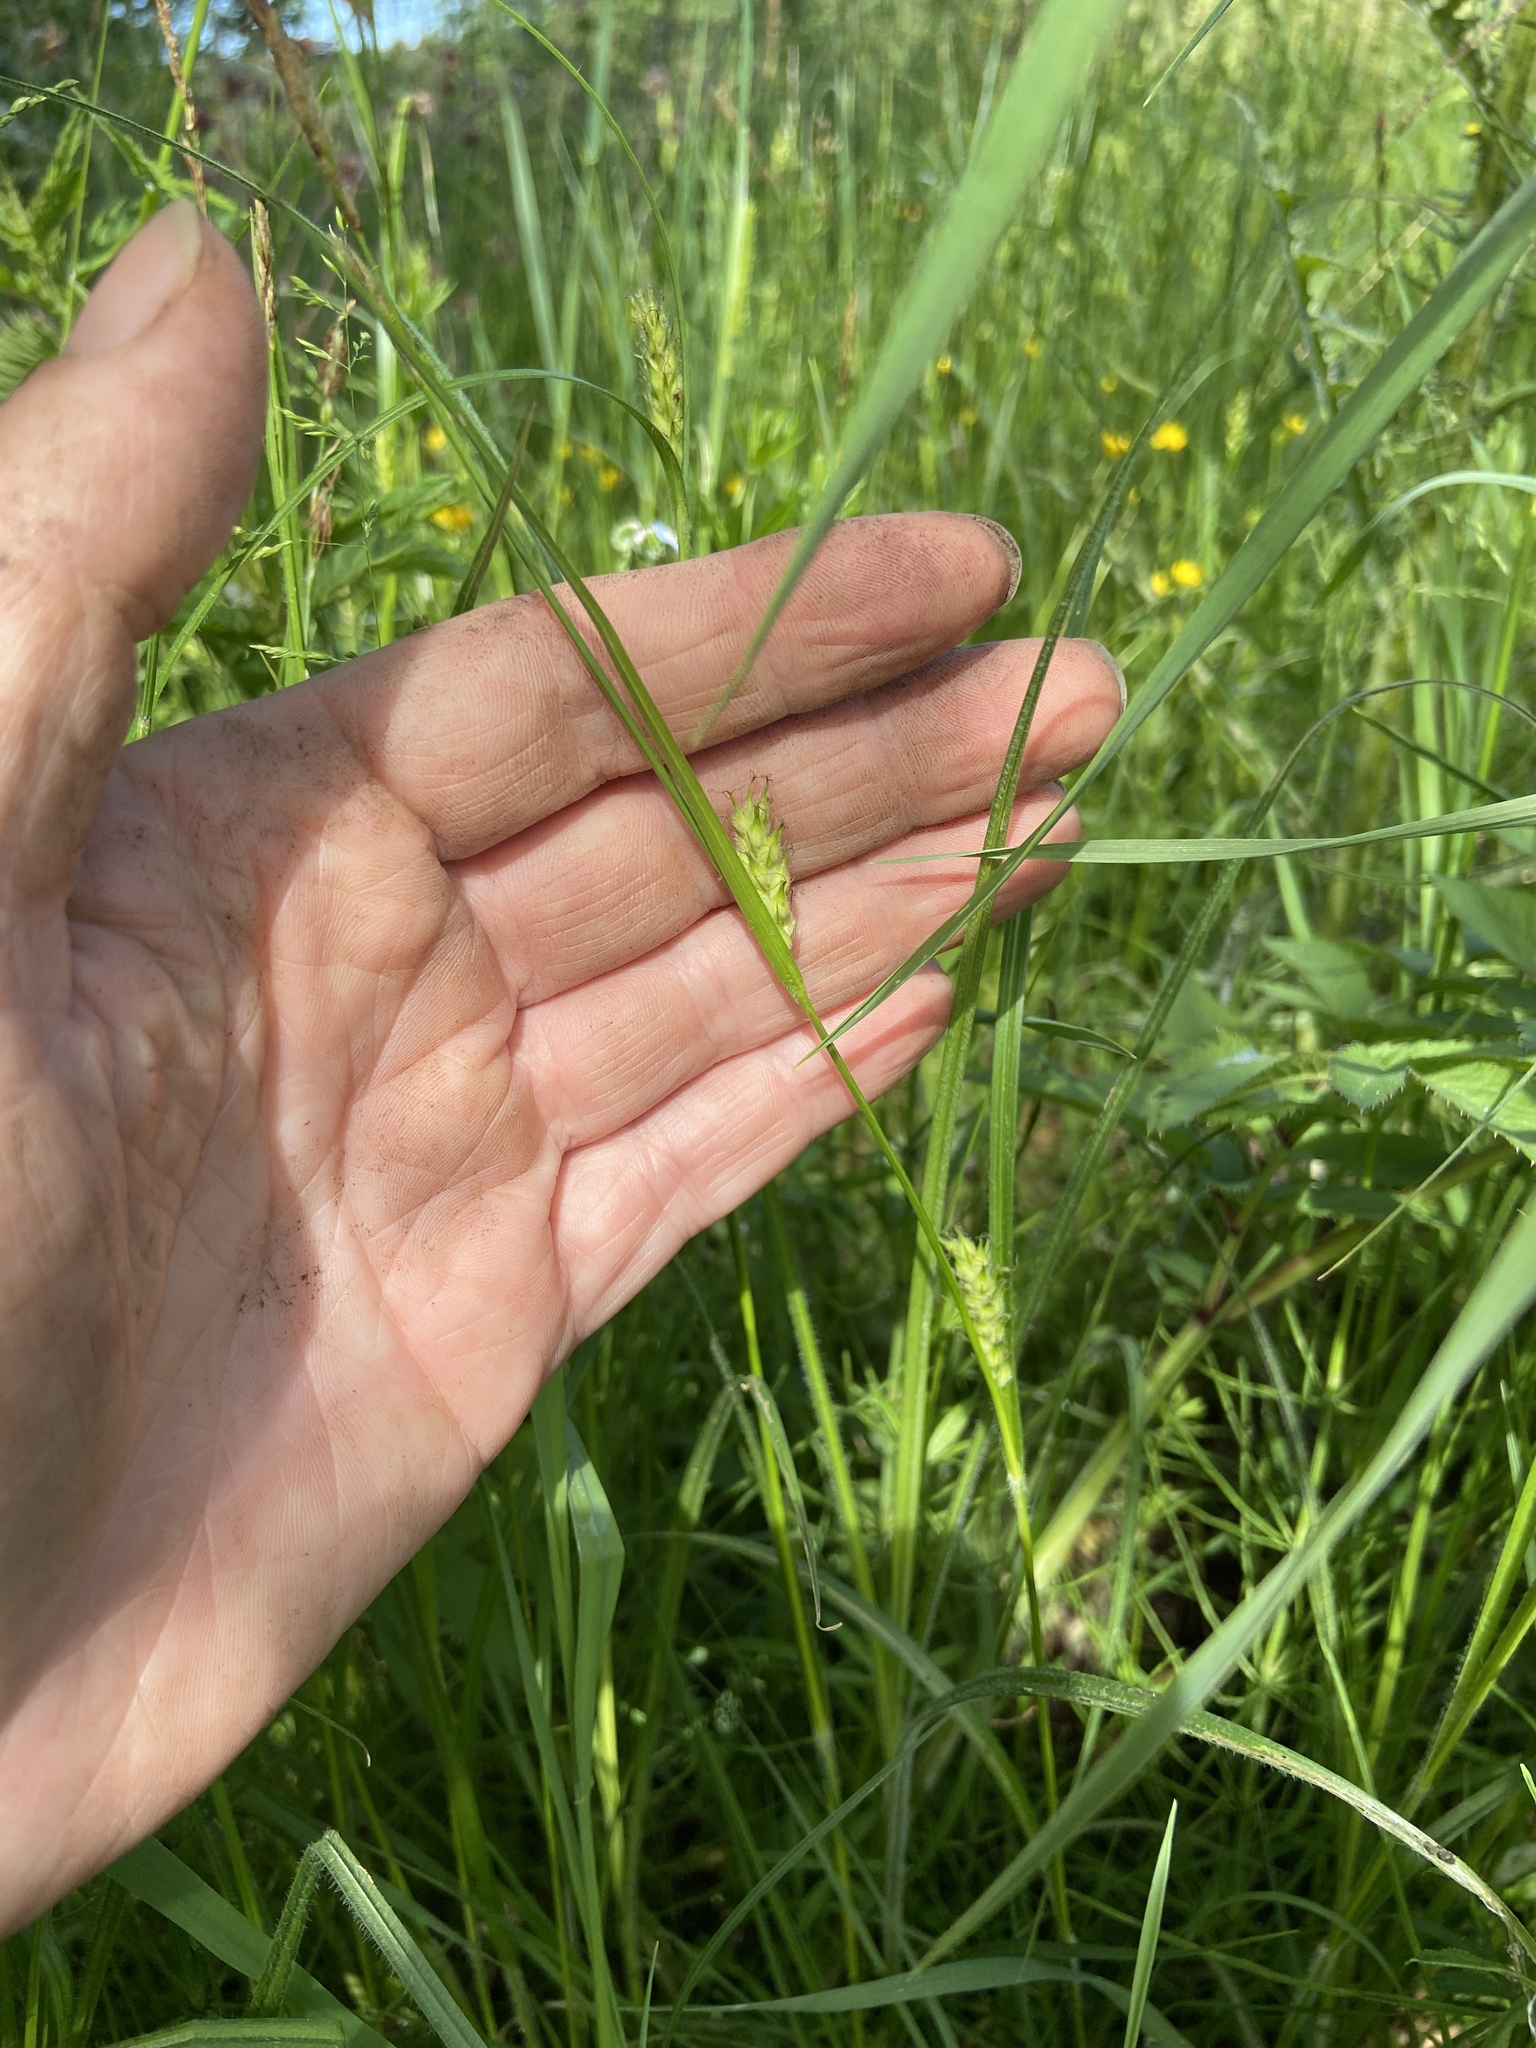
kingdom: Plantae
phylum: Tracheophyta
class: Liliopsida
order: Poales
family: Cyperaceae
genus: Carex
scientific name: Carex hirta
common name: Hairy sedge
